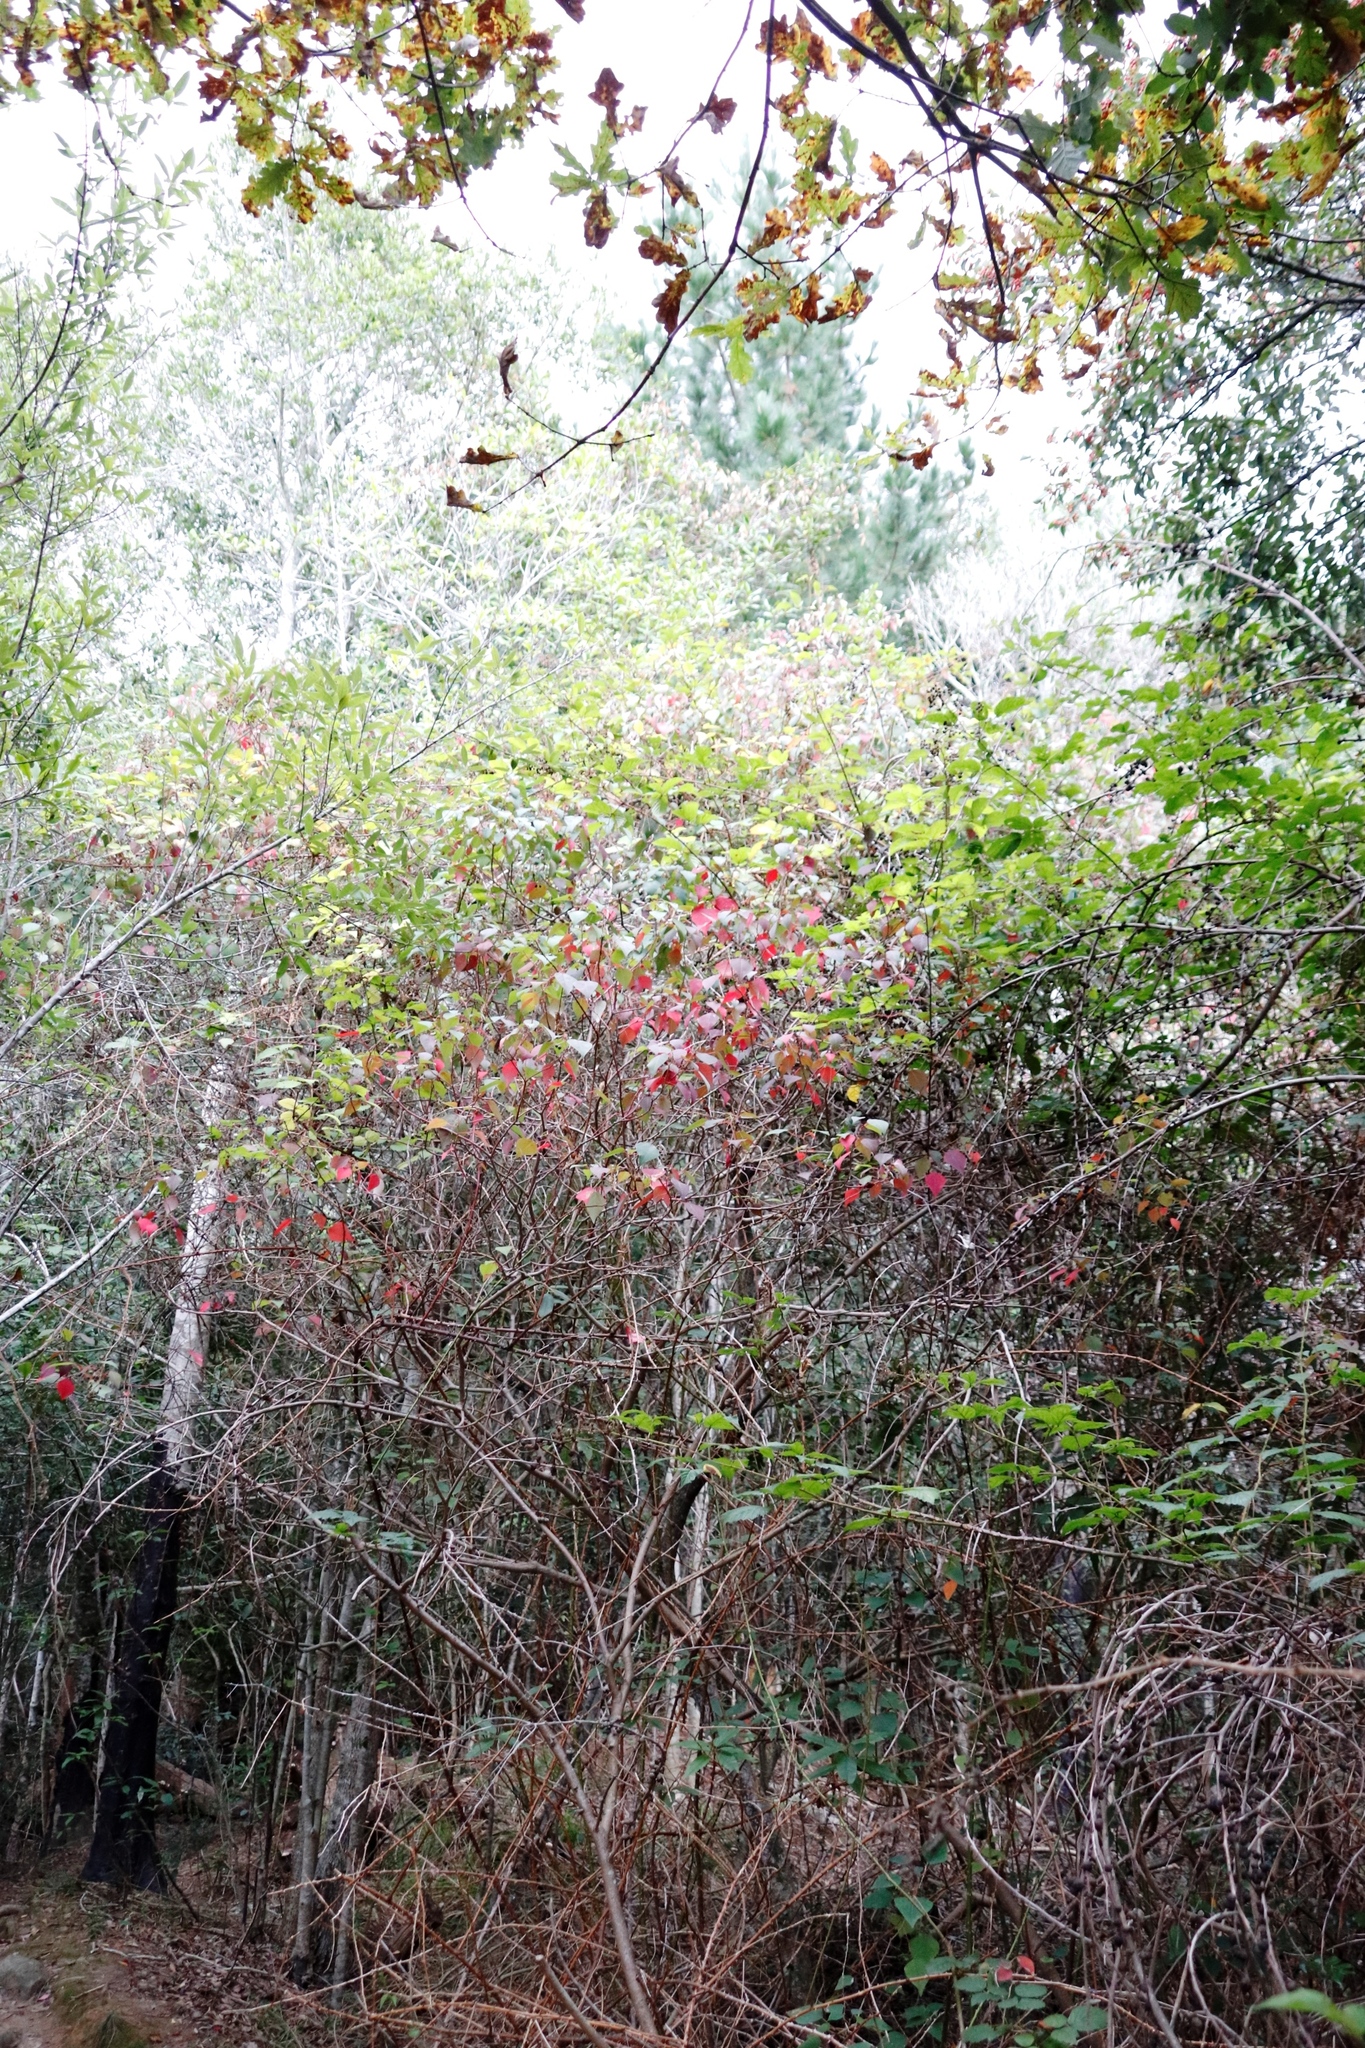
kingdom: Plantae
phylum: Tracheophyta
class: Magnoliopsida
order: Malpighiales
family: Euphorbiaceae
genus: Homalanthus
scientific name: Homalanthus populifolius
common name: Queensland poplar
